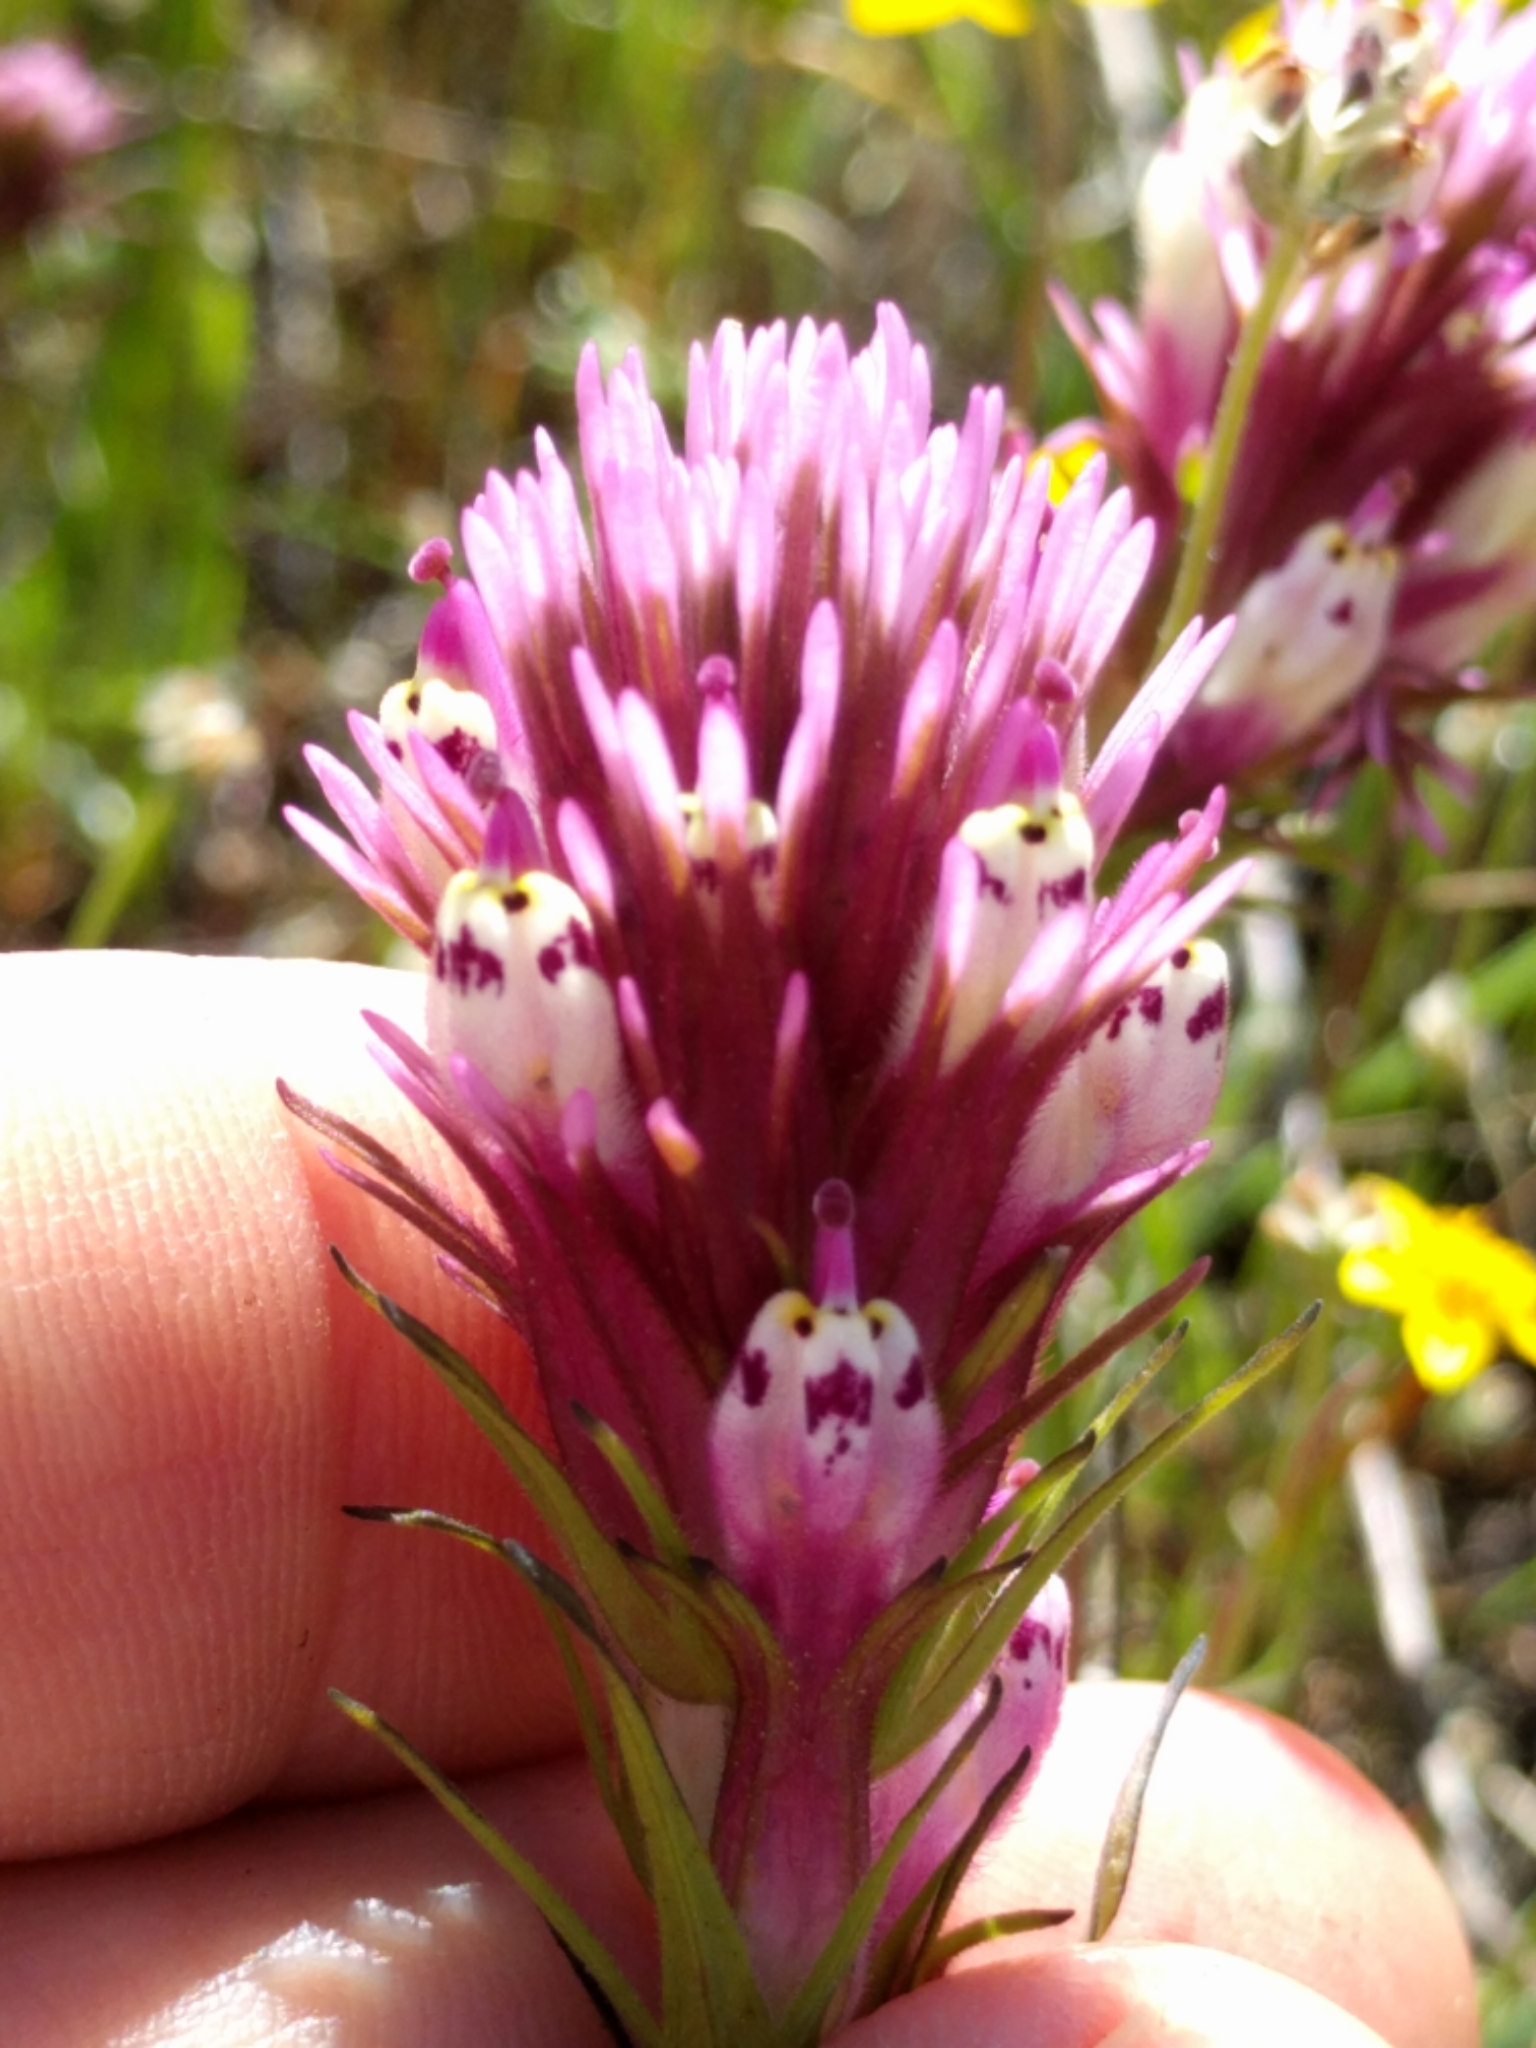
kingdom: Plantae
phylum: Tracheophyta
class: Magnoliopsida
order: Lamiales
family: Orobanchaceae
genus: Castilleja
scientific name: Castilleja densiflora
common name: Dense-flower indian paintbrush
